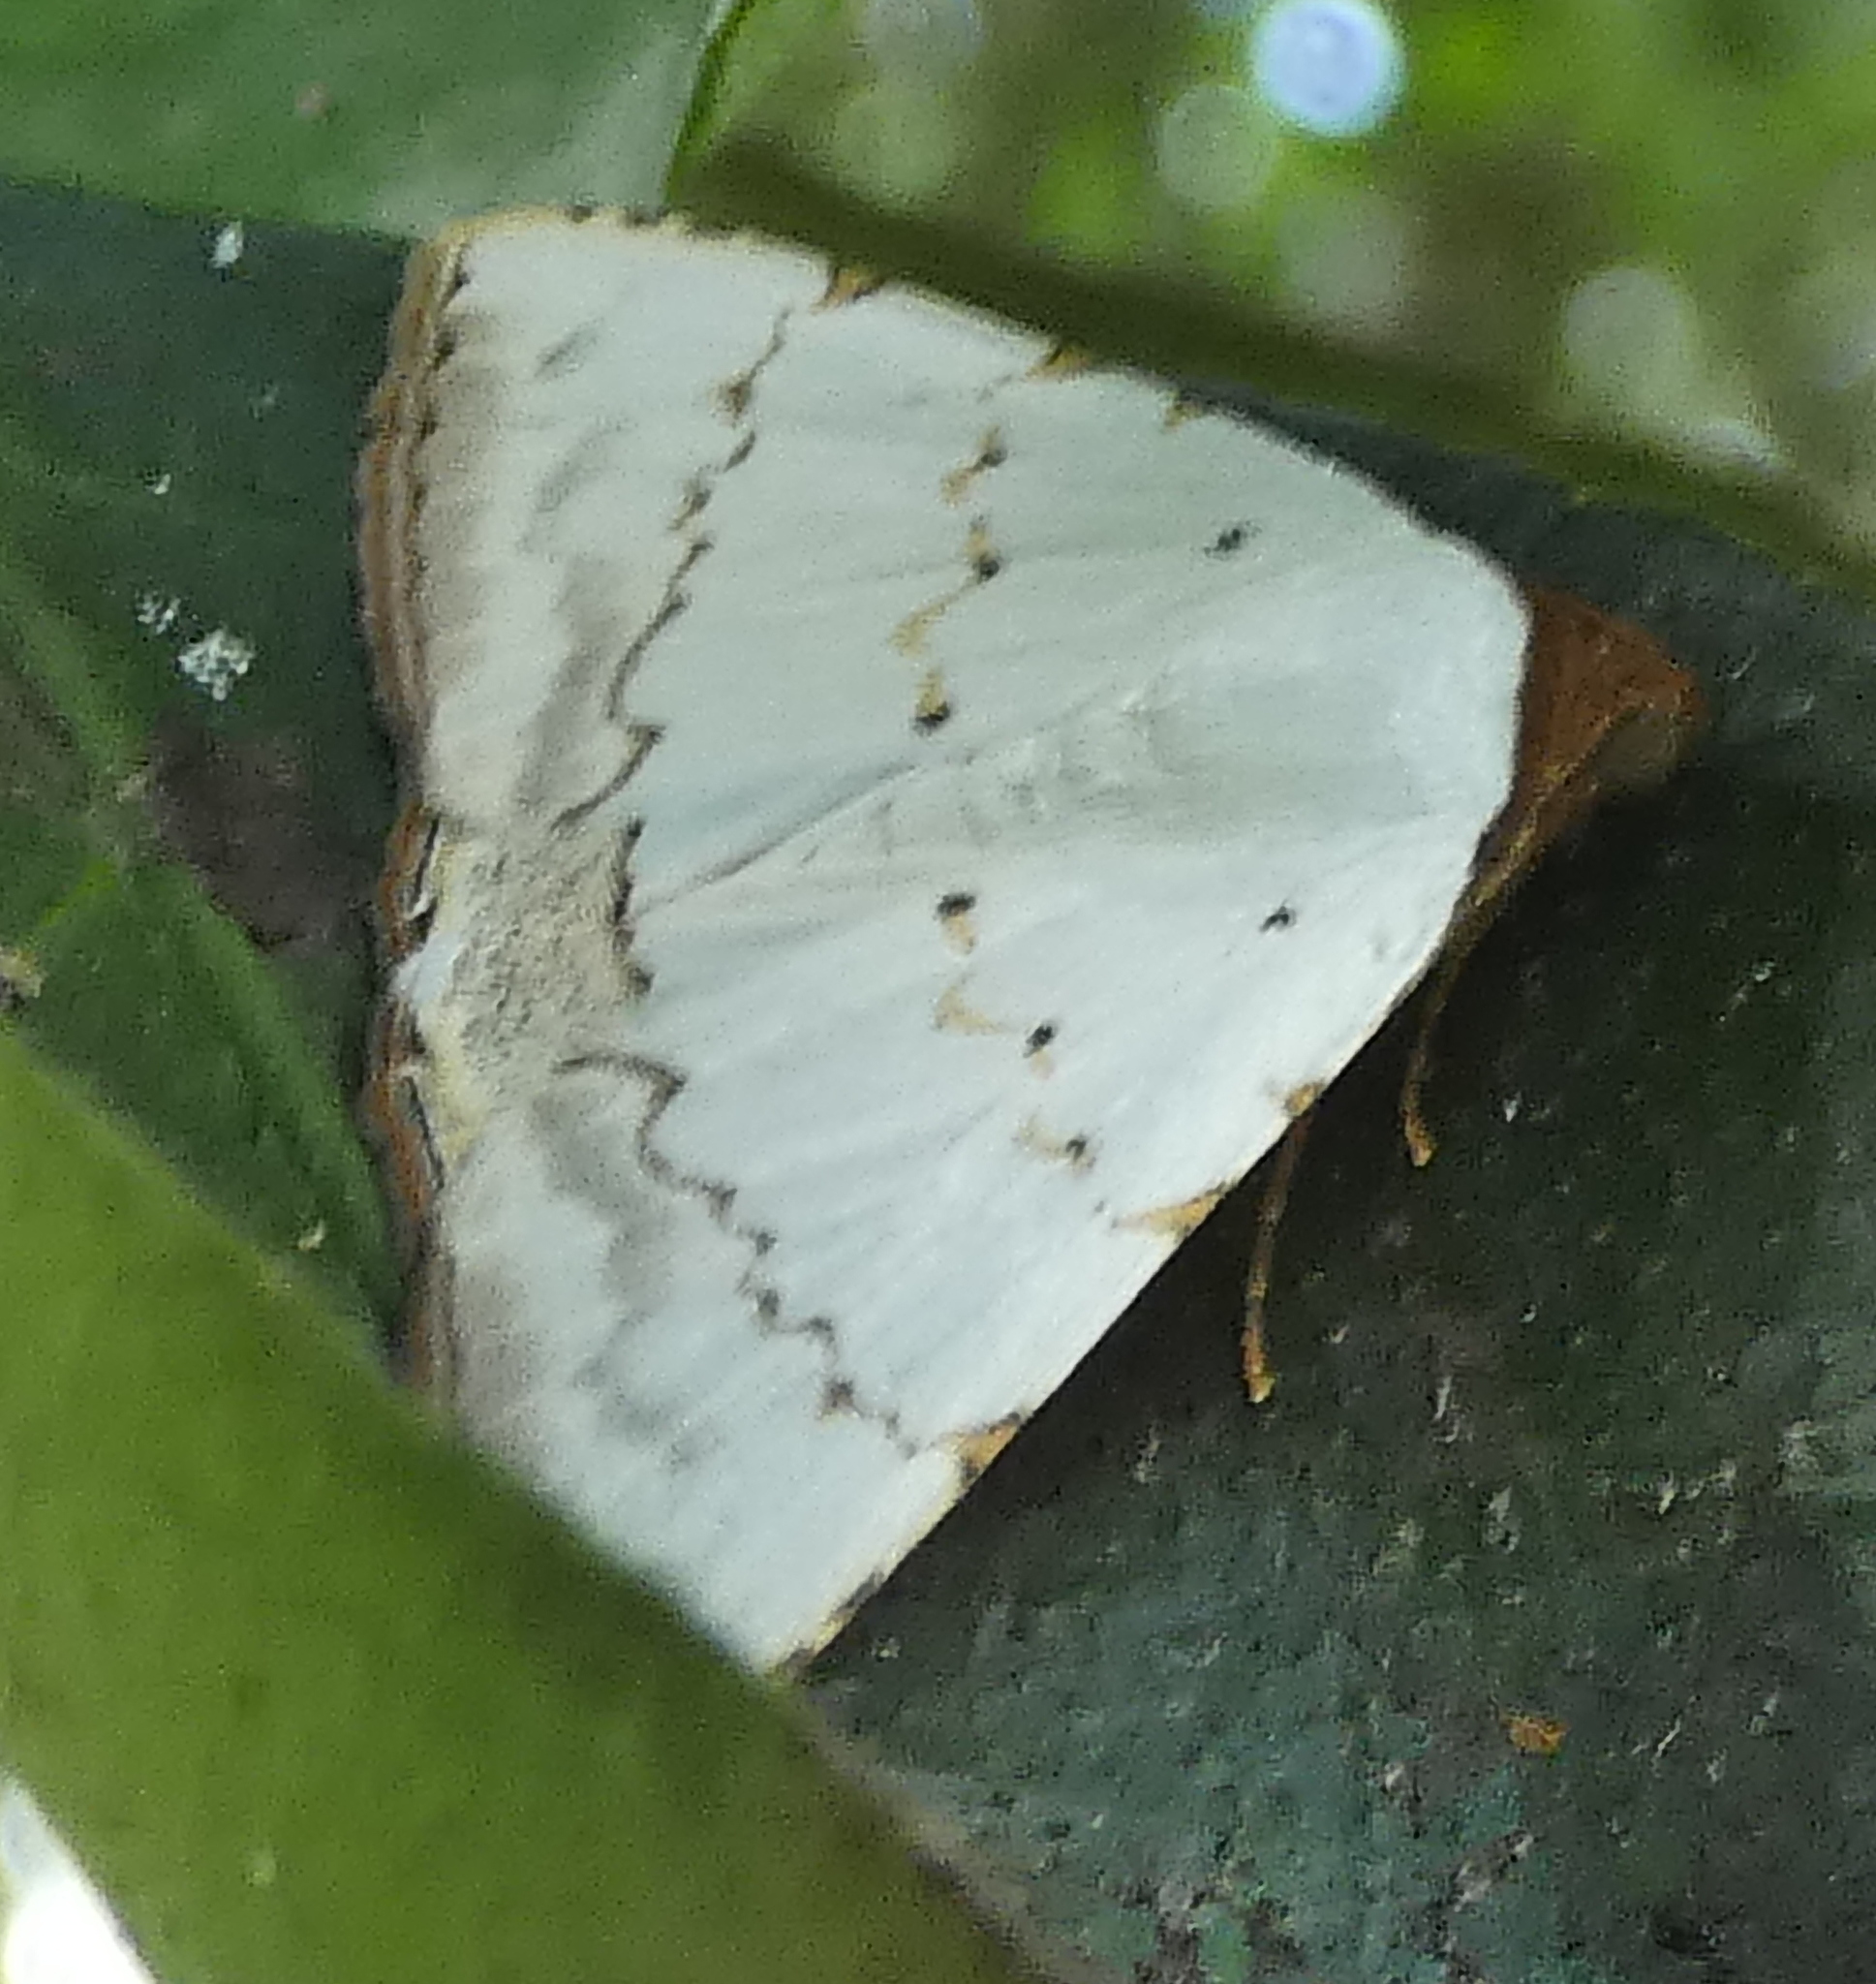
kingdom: Animalia
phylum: Arthropoda
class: Insecta
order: Lepidoptera
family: Erebidae
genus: Eulepidotis
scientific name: Eulepidotis alabastraria
